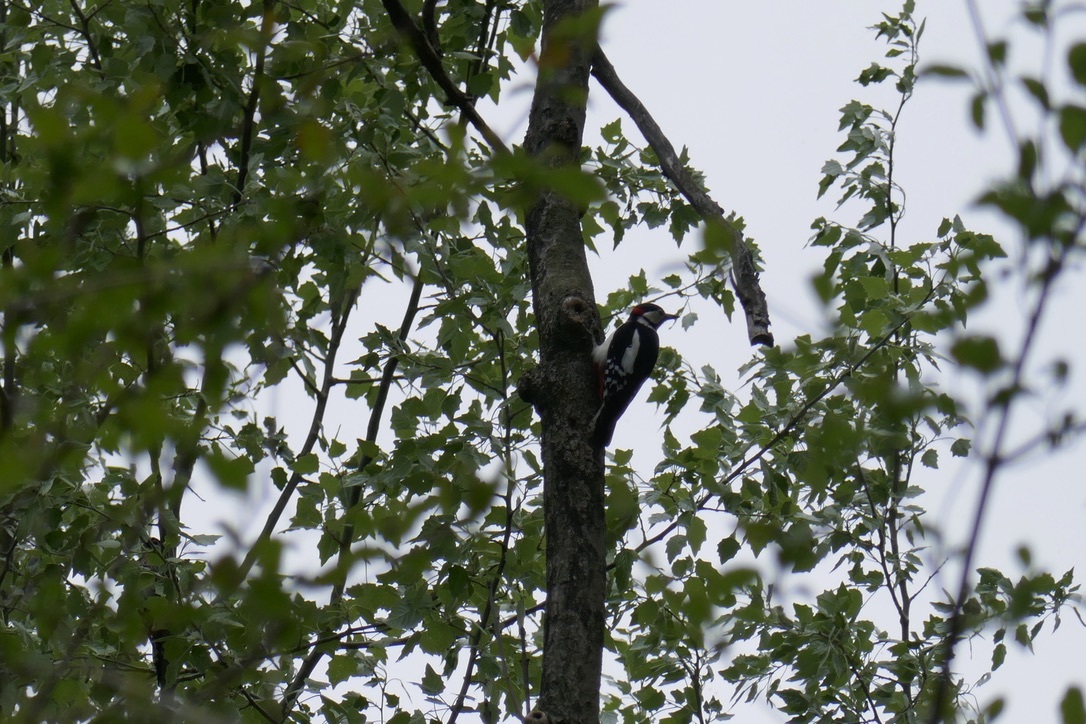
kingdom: Animalia
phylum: Chordata
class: Aves
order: Piciformes
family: Picidae
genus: Dendrocopos
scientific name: Dendrocopos major
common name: Great spotted woodpecker
